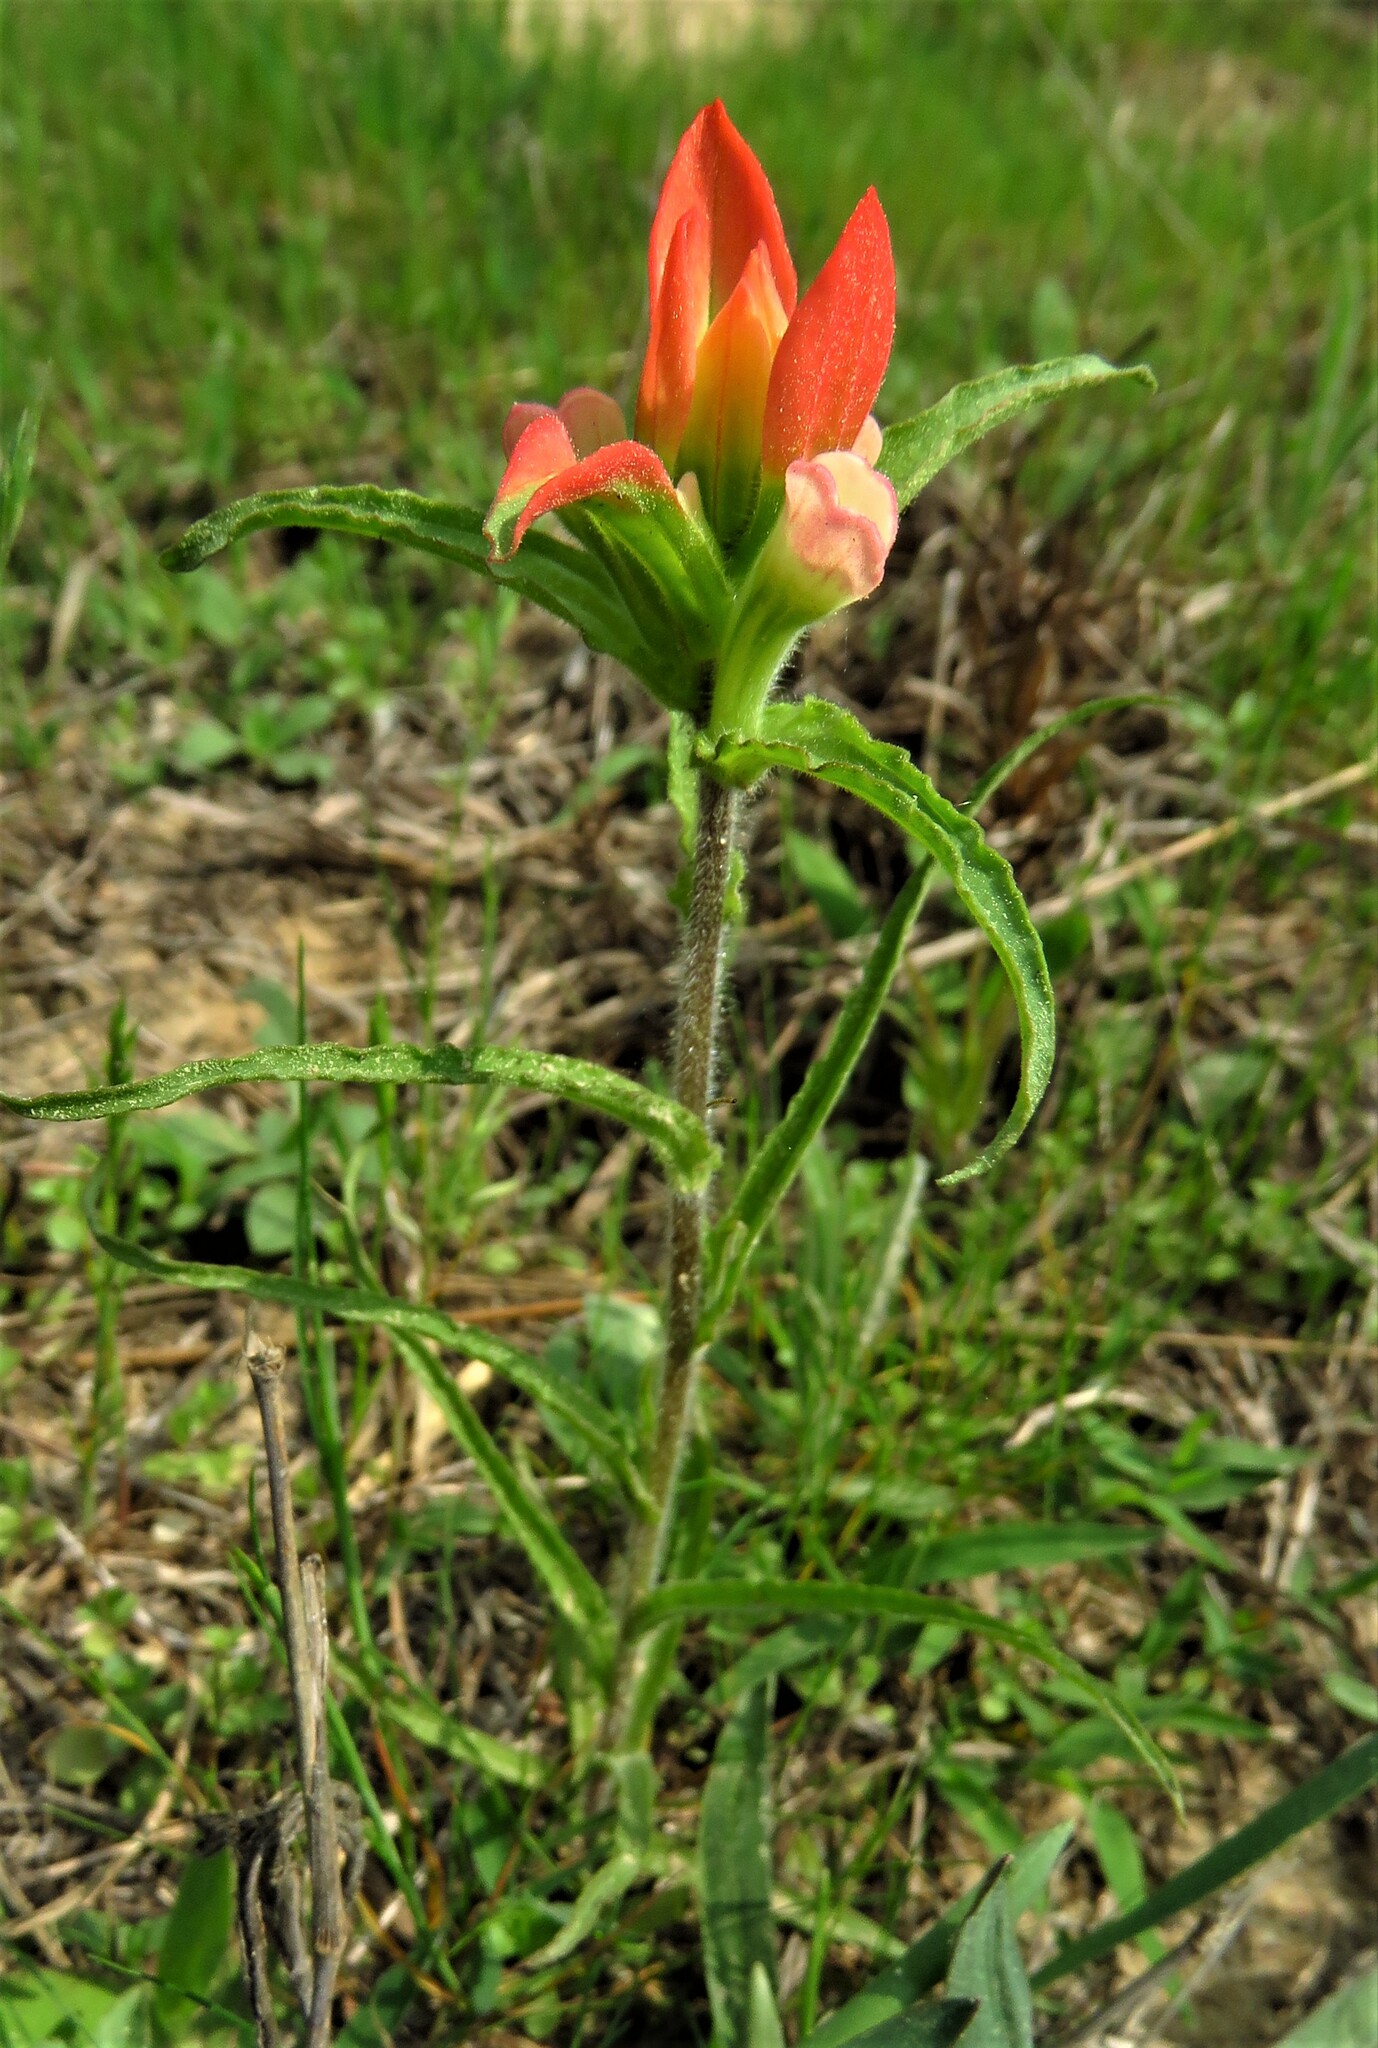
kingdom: Plantae
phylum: Tracheophyta
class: Magnoliopsida
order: Lamiales
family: Orobanchaceae
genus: Castilleja
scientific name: Castilleja indivisa
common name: Texas paintbrush
